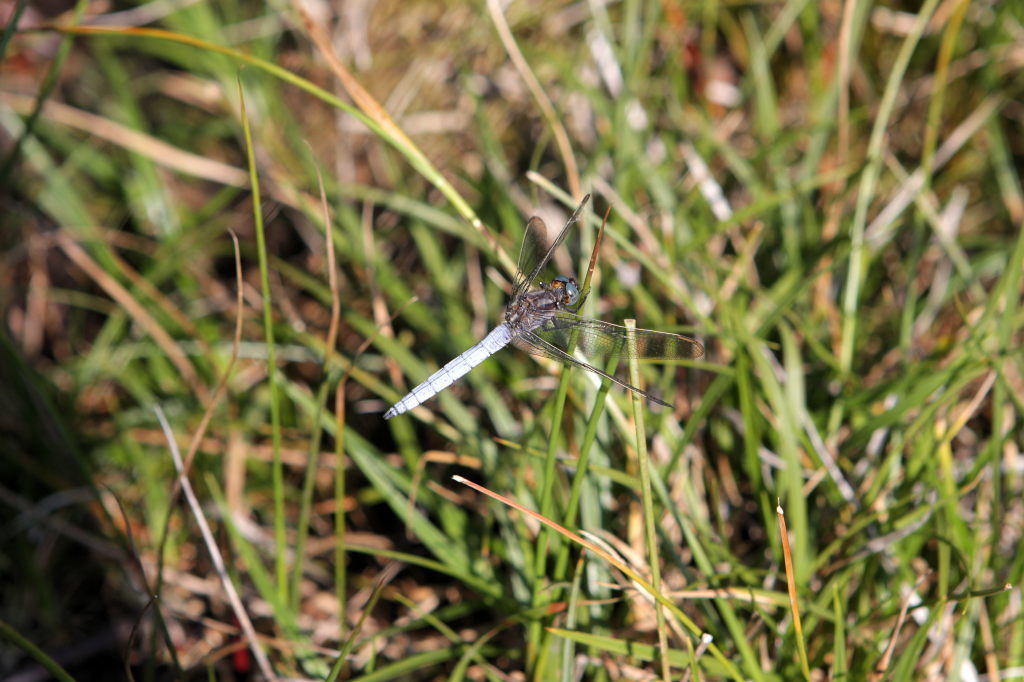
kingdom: Animalia
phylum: Arthropoda
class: Insecta
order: Odonata
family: Libellulidae
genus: Orthetrum
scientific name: Orthetrum coerulescens
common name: Keeled skimmer
